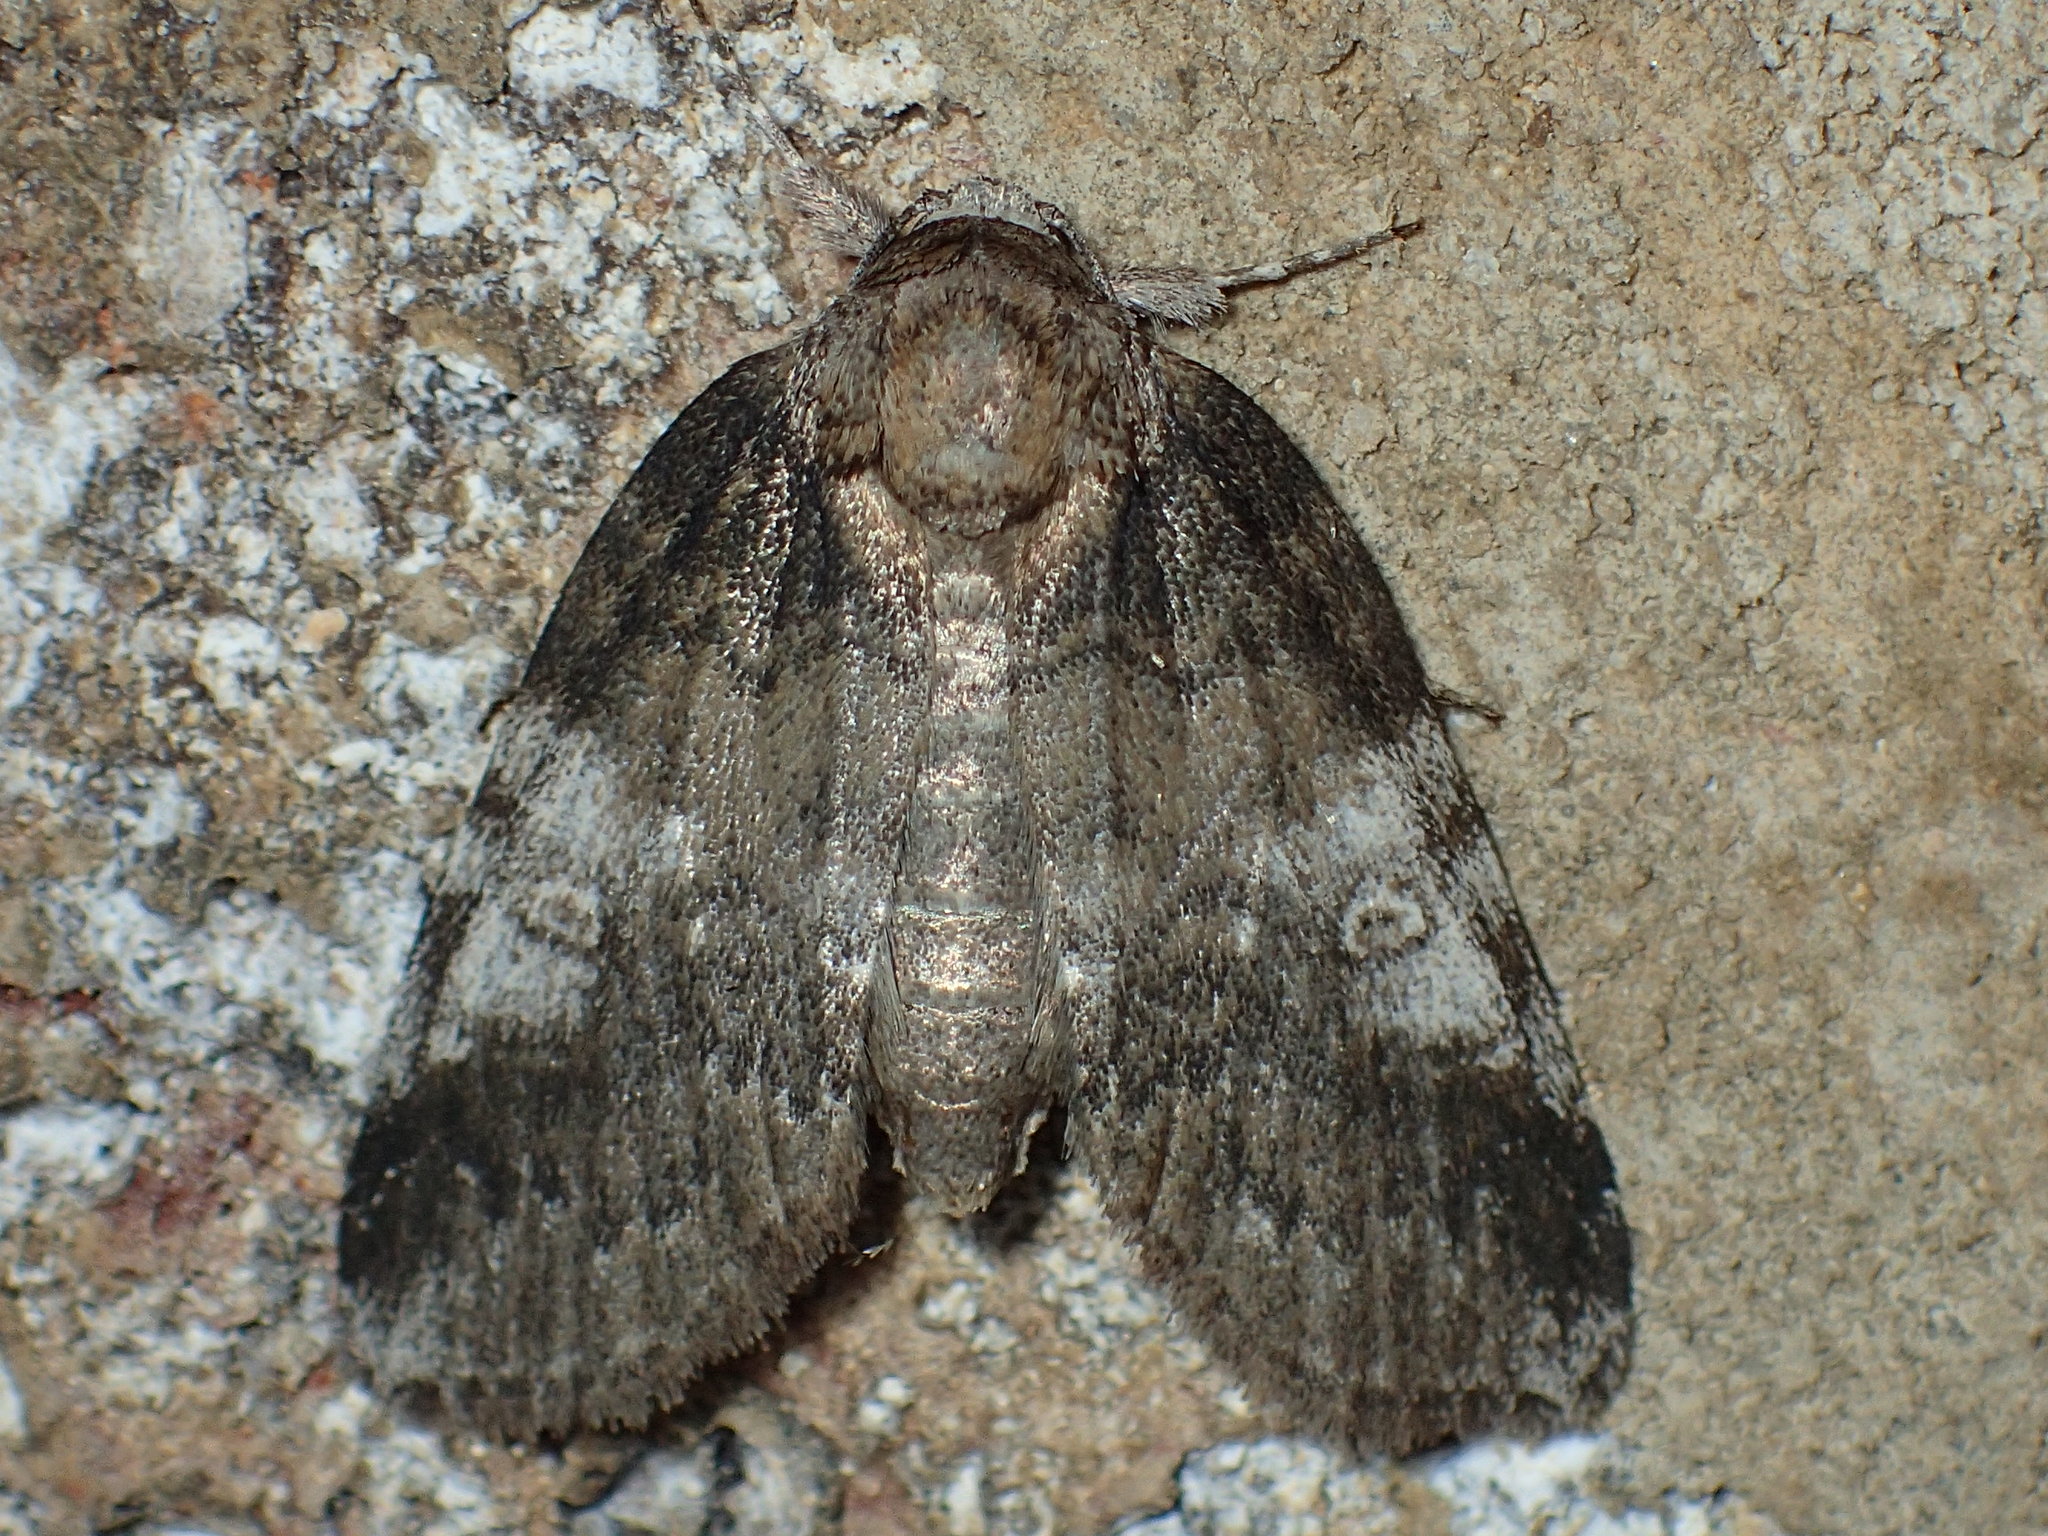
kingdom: Animalia
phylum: Arthropoda
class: Insecta
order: Lepidoptera
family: Nolidae
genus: Baileya
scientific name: Baileya levitans
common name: Pale baileya
